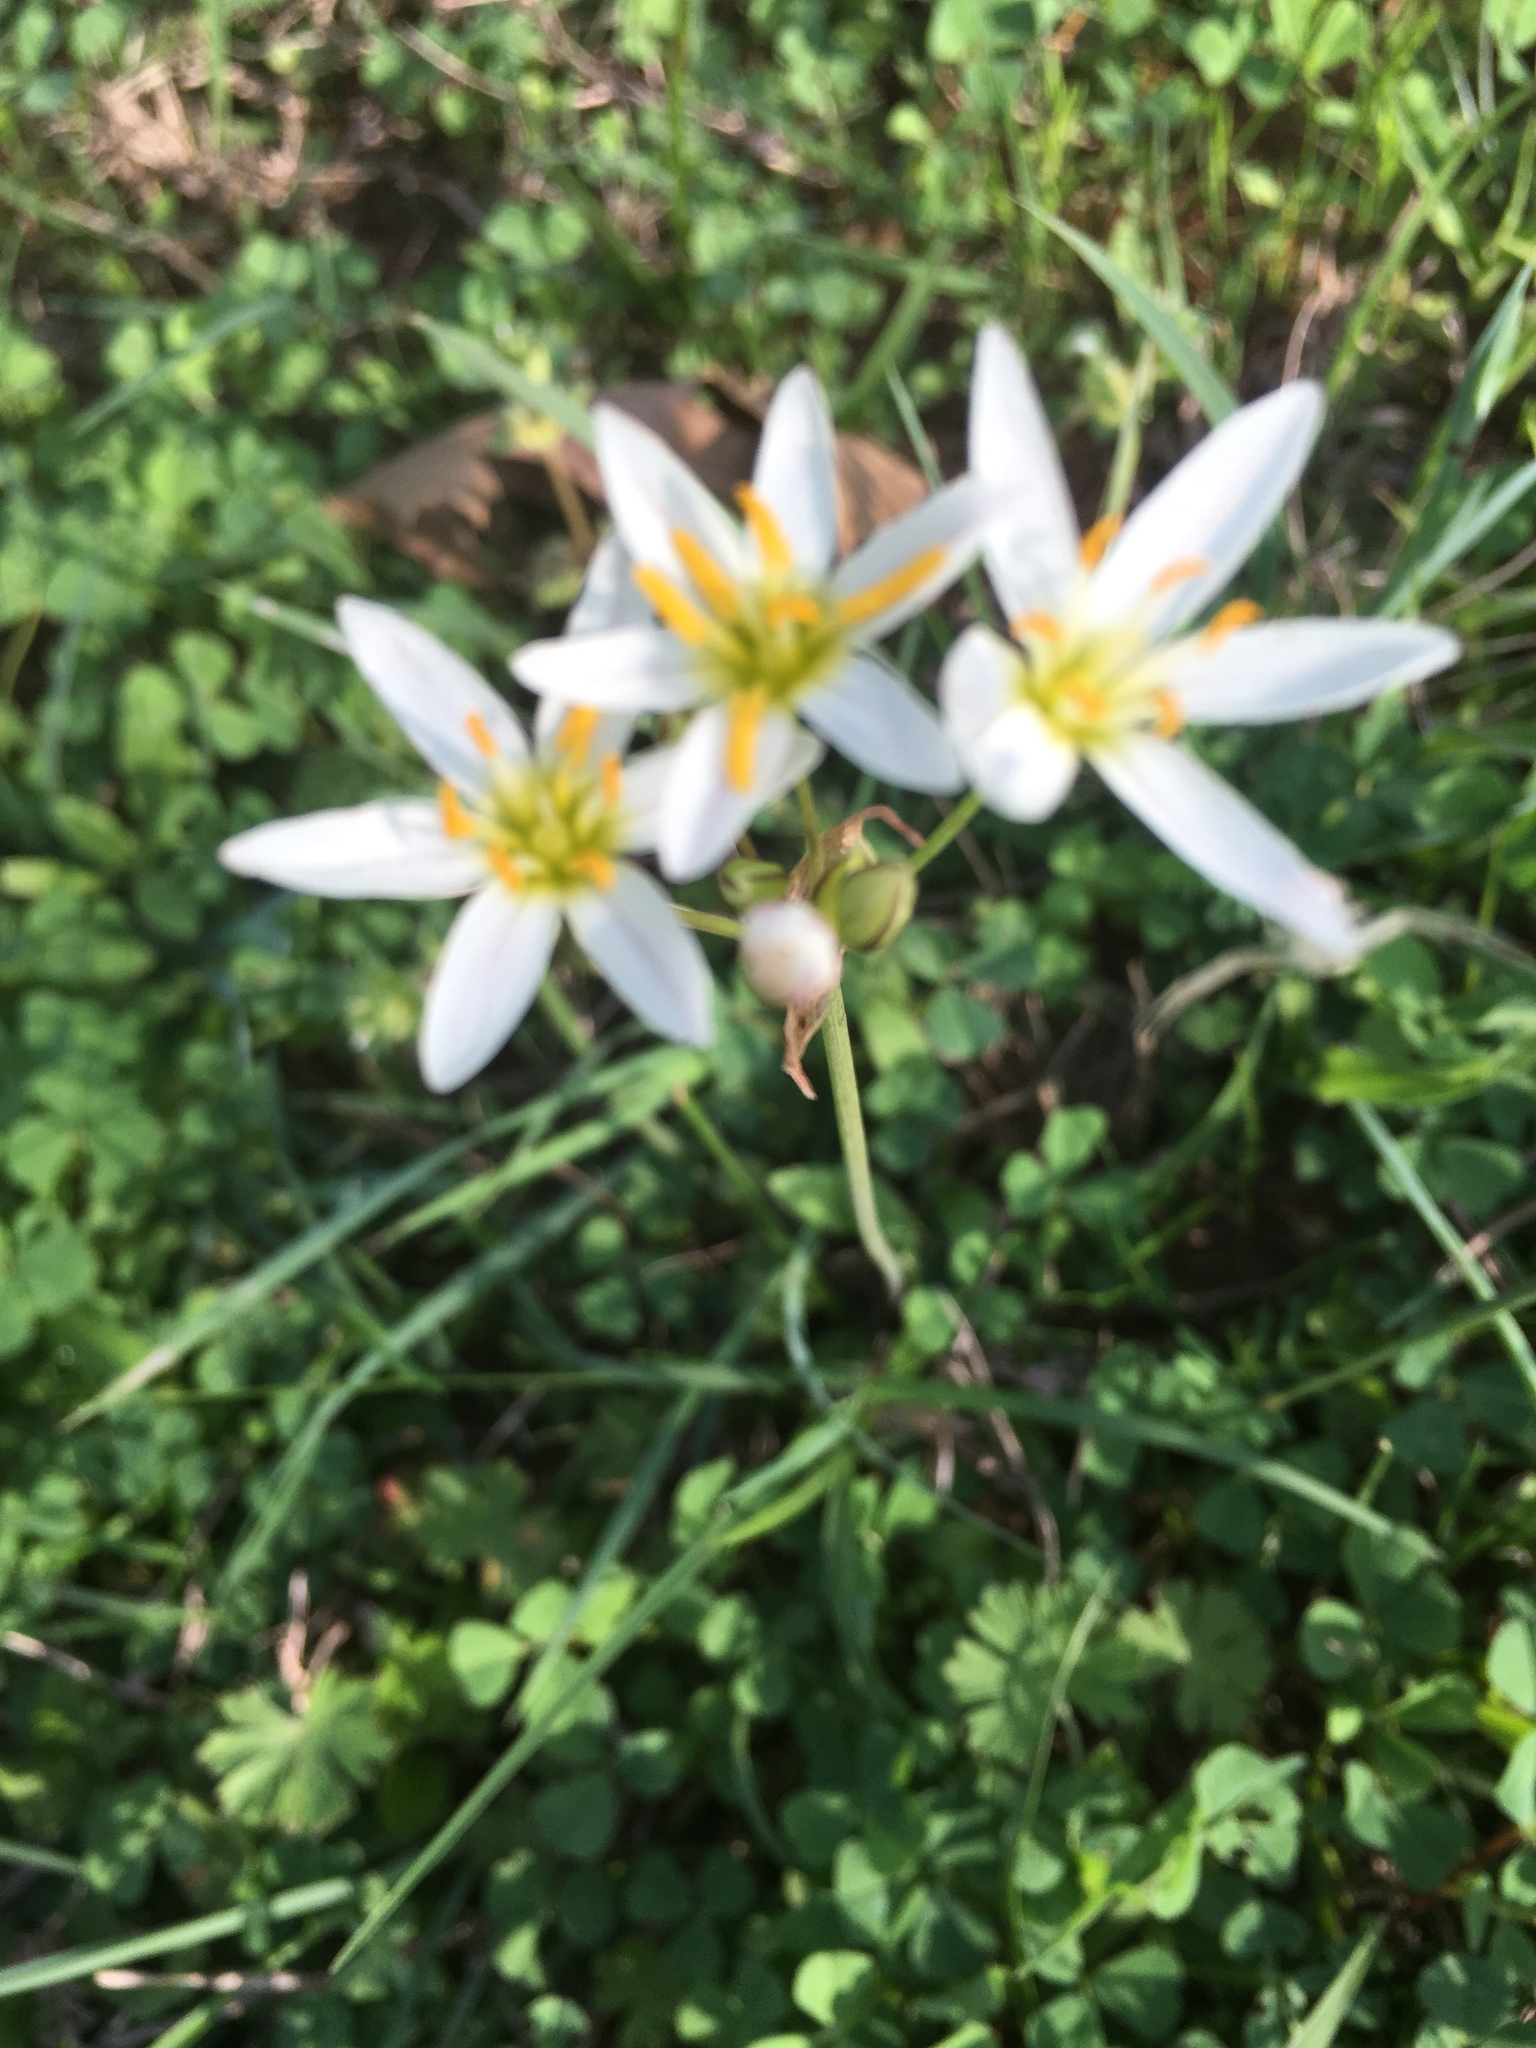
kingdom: Plantae
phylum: Tracheophyta
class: Liliopsida
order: Asparagales
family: Amaryllidaceae
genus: Nothoscordum
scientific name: Nothoscordum bivalve
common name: Crow-poison
